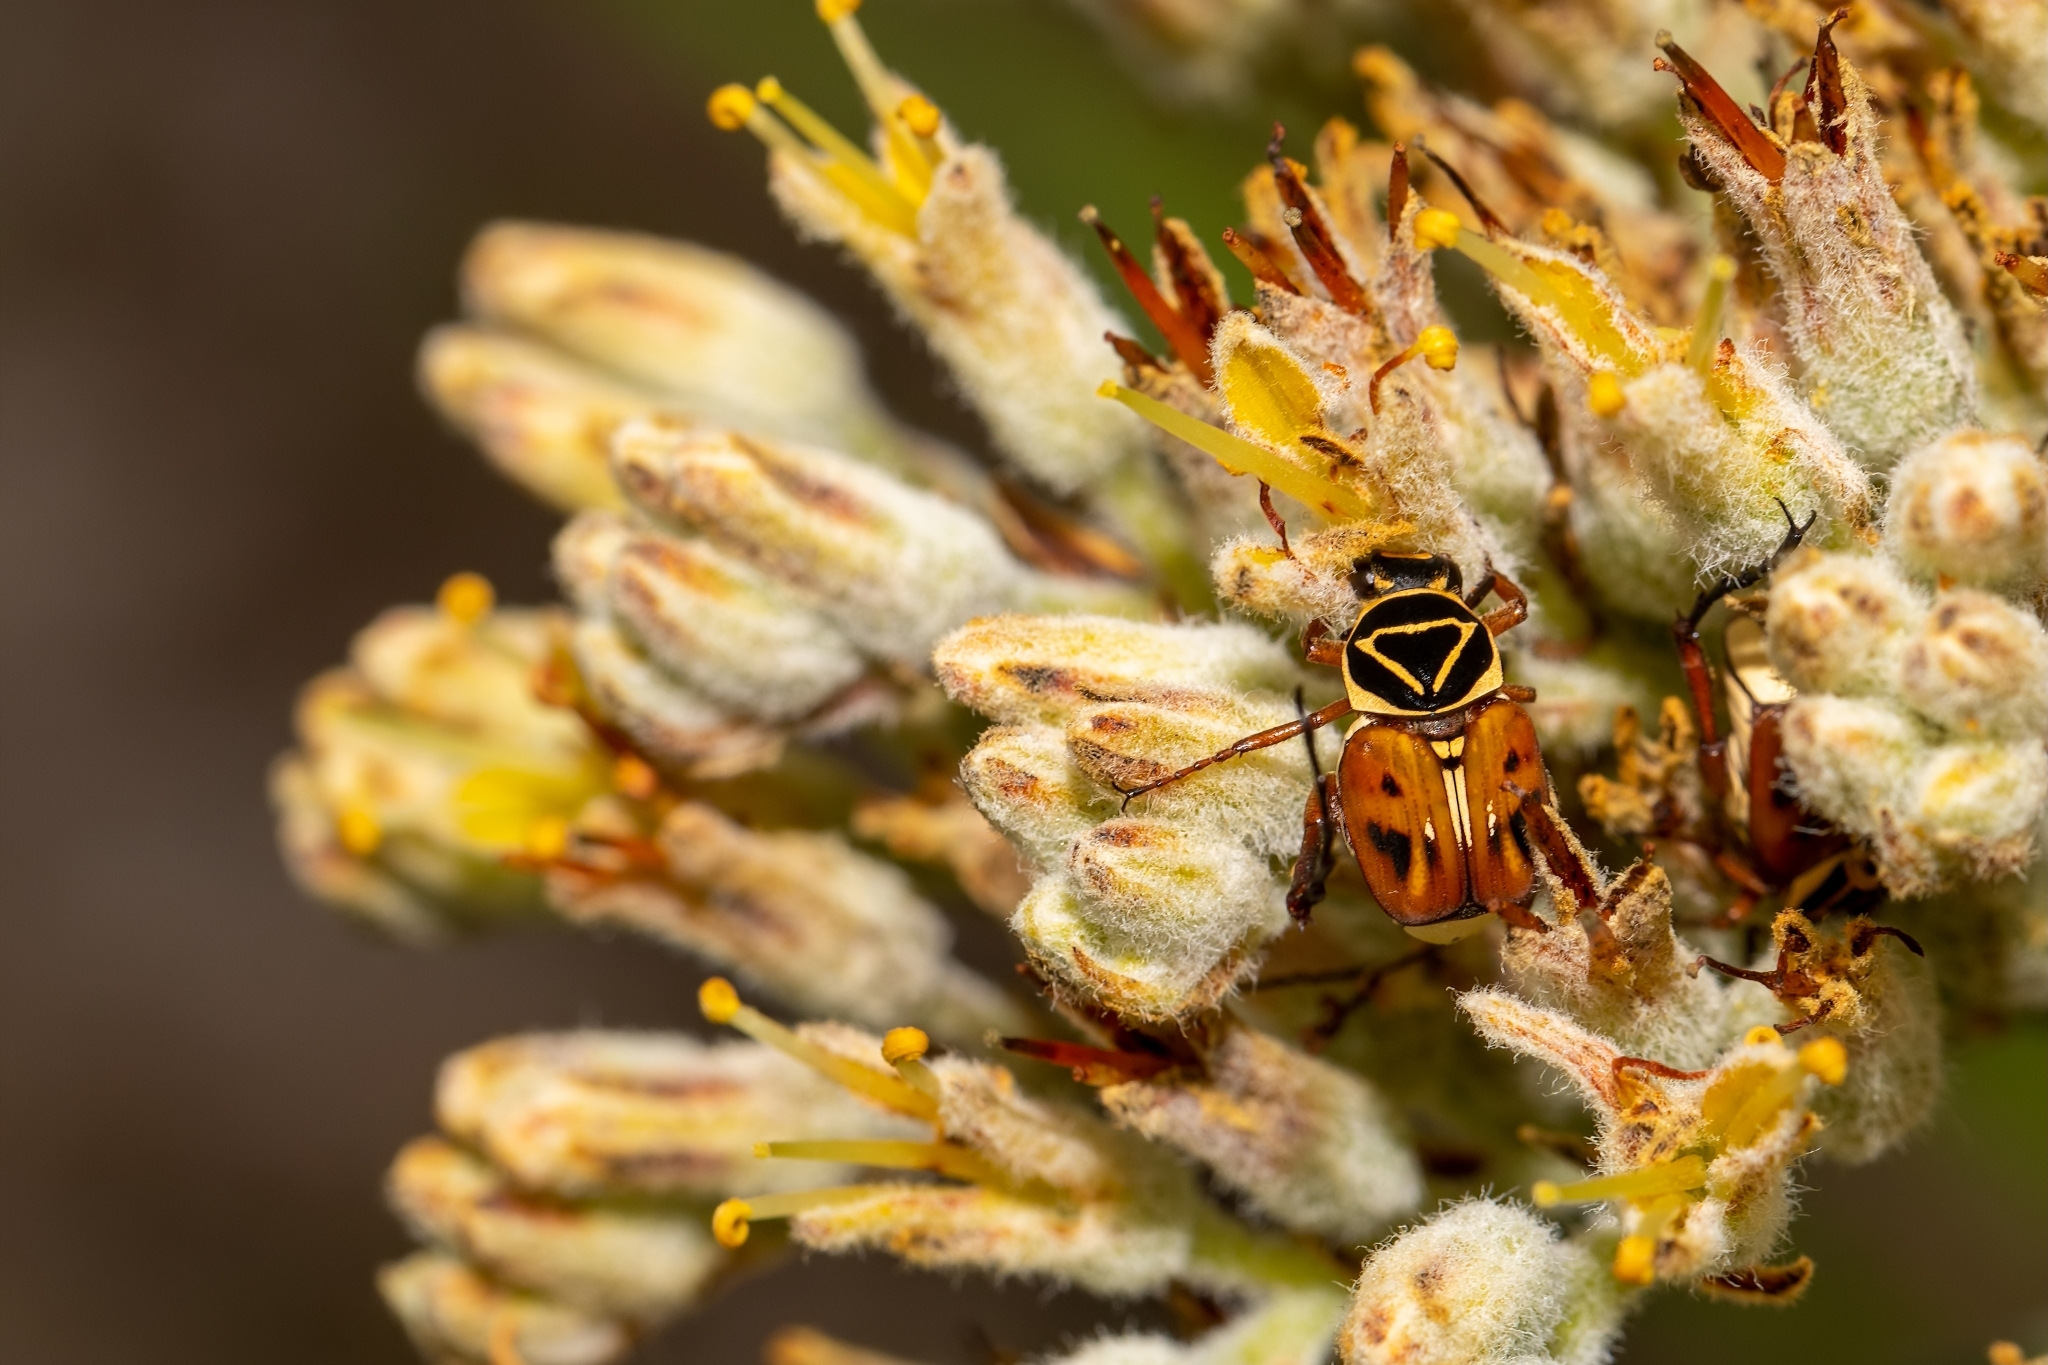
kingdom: Animalia
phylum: Arthropoda
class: Insecta
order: Coleoptera
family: Scarabaeidae
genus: Trigonopeltastes
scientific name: Trigonopeltastes delta
